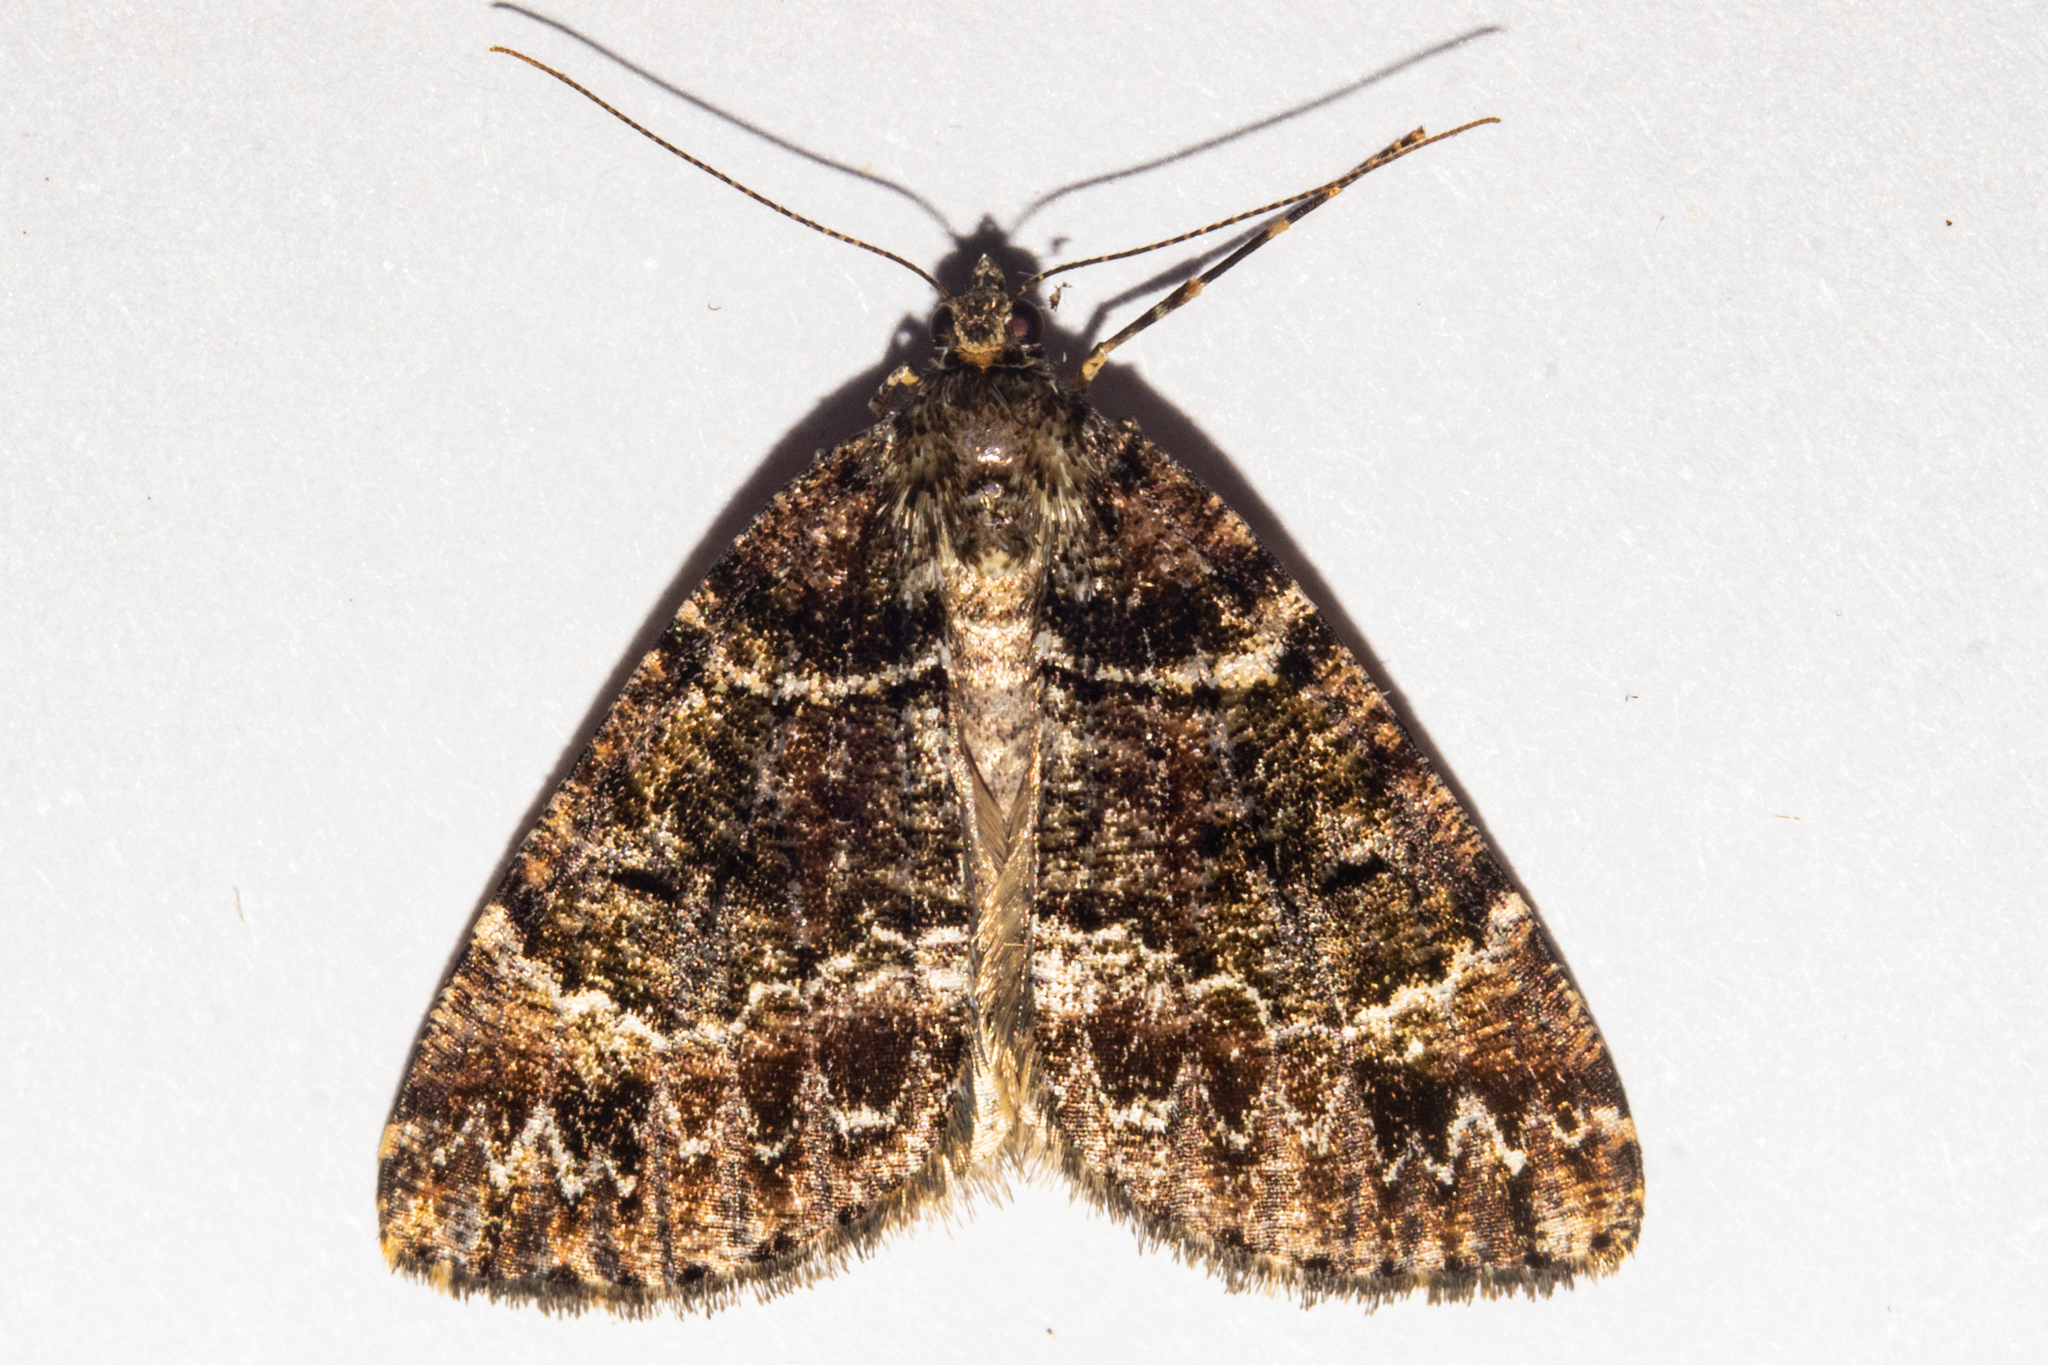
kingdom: Animalia
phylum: Arthropoda
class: Insecta
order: Lepidoptera
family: Geometridae
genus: Pseudocoremia
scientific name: Pseudocoremia productata
